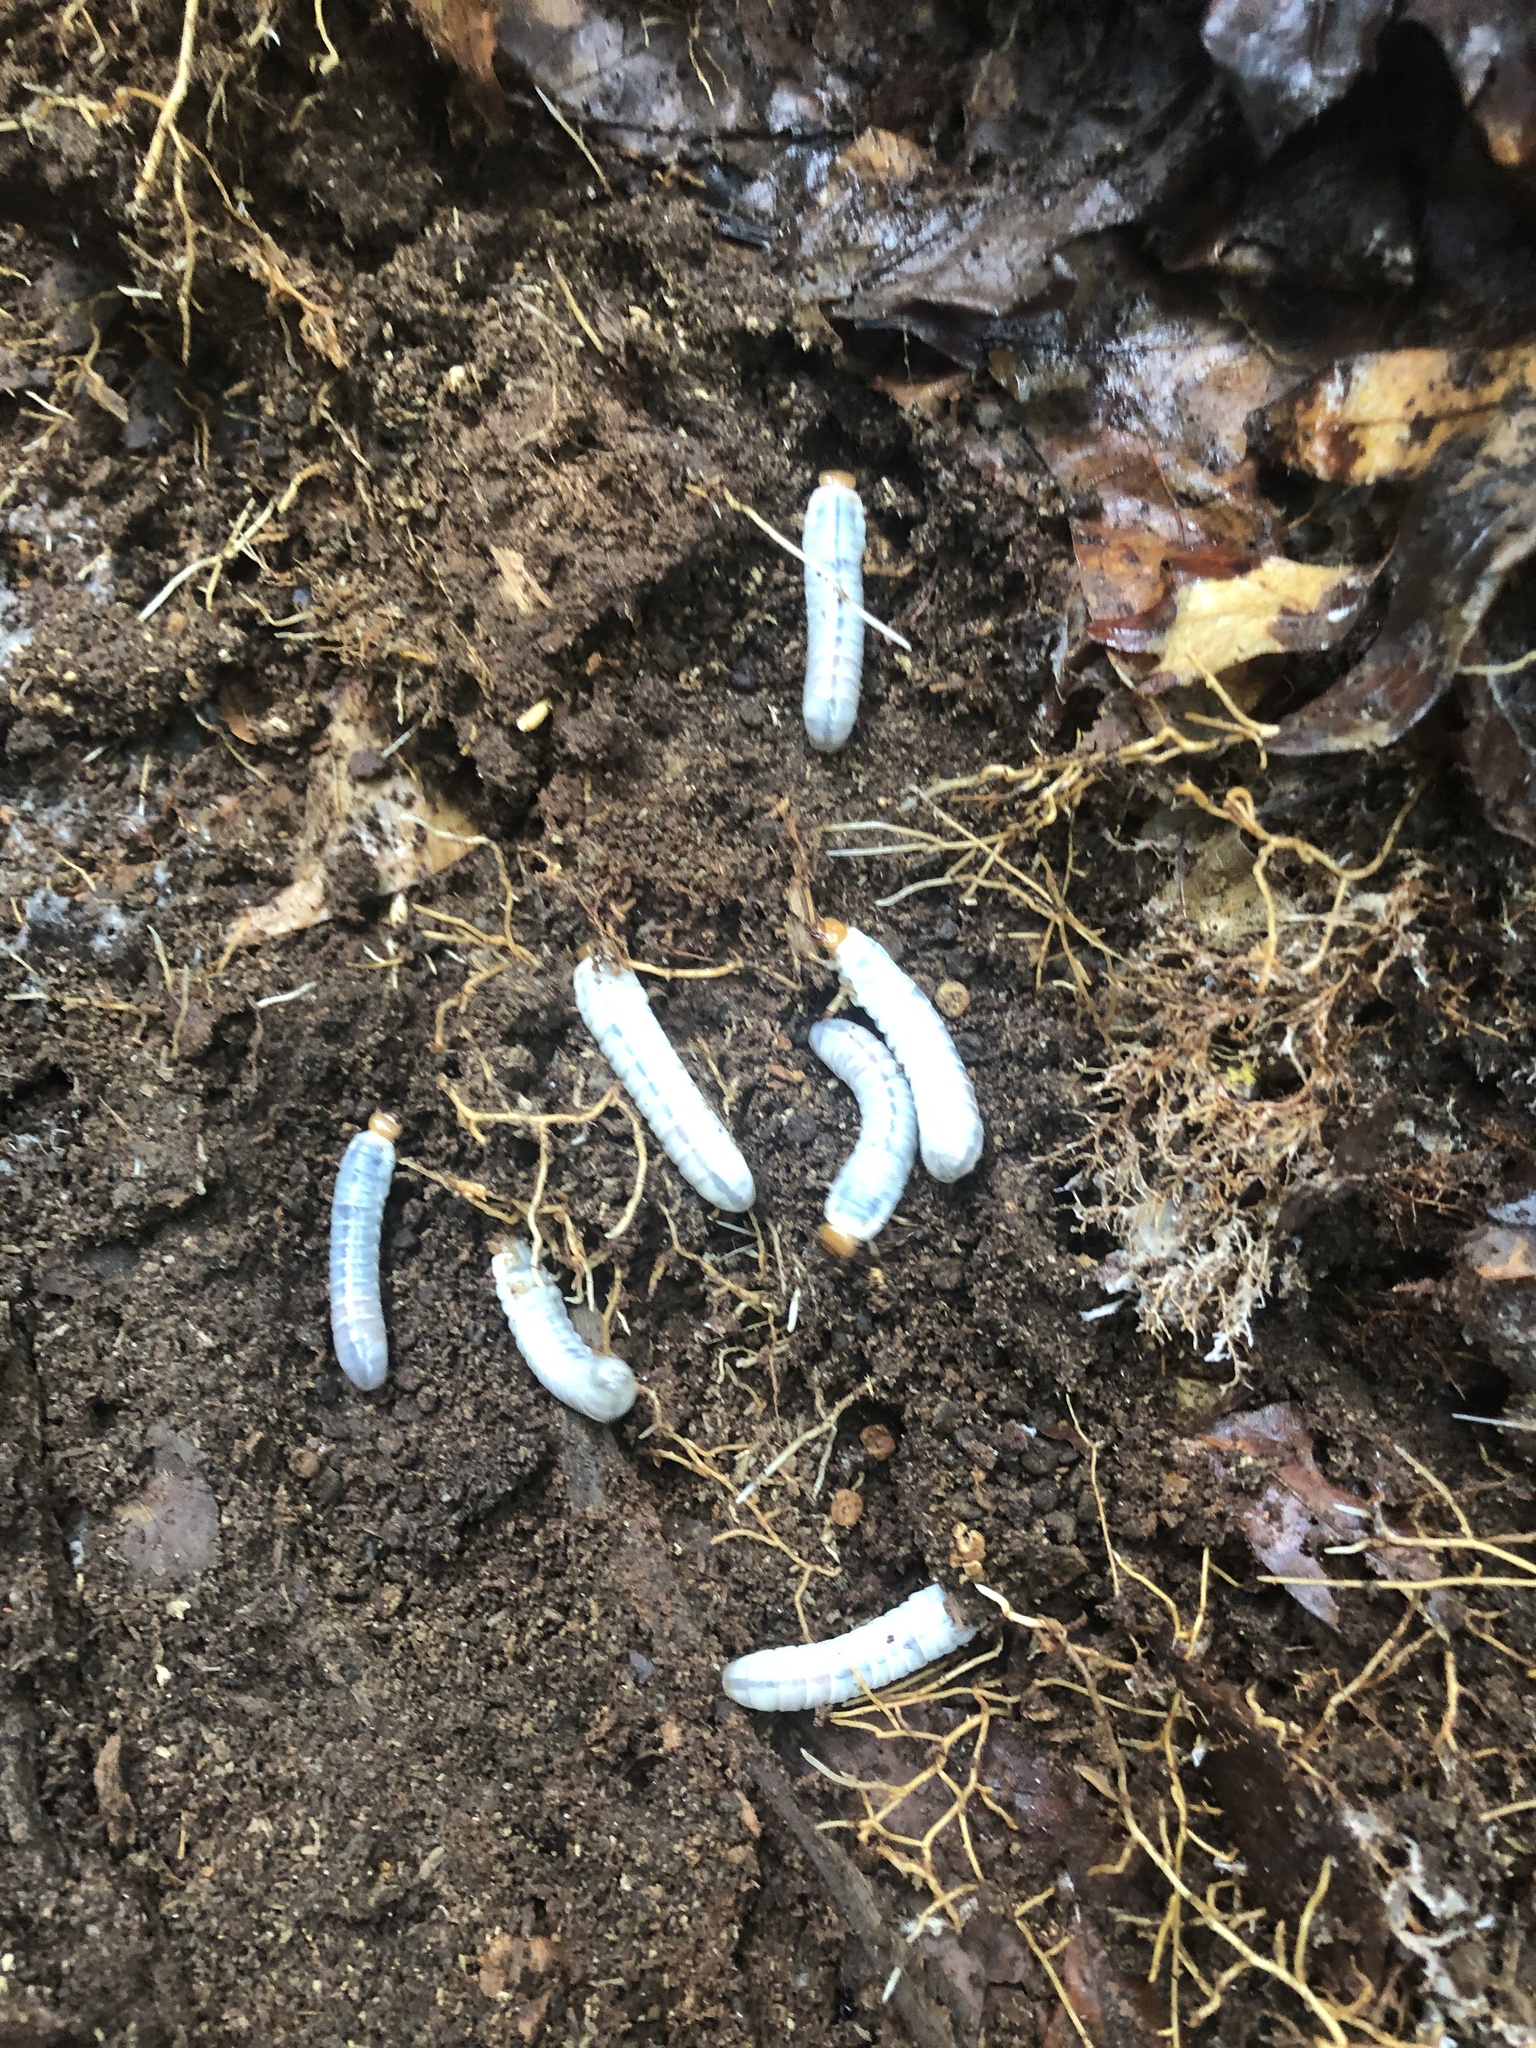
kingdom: Animalia
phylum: Arthropoda
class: Insecta
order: Coleoptera
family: Passalidae
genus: Odontotaenius
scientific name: Odontotaenius disjunctus
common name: Patent leather beetle
